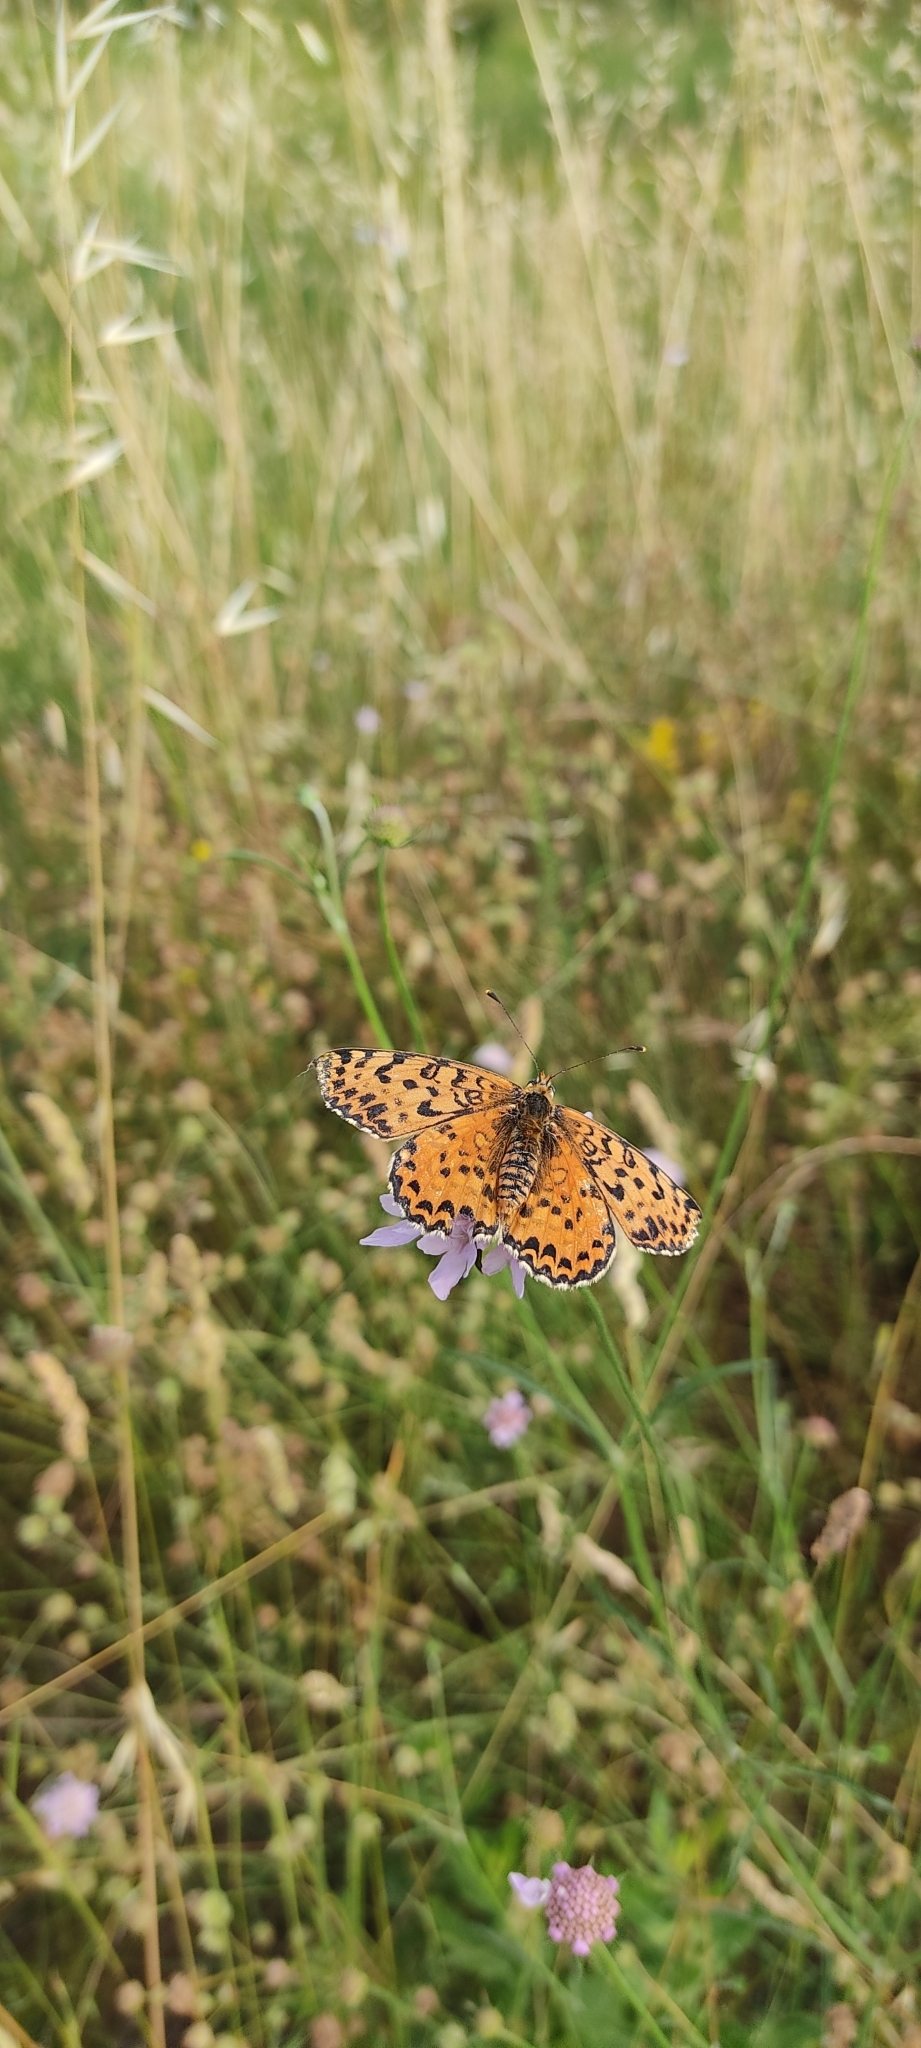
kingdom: Animalia
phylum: Arthropoda
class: Insecta
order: Lepidoptera
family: Nymphalidae
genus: Melitaea
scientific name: Melitaea didyma
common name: Spotted fritillary
